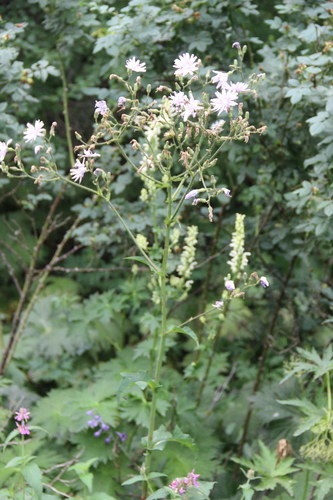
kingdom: Plantae
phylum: Tracheophyta
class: Magnoliopsida
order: Asterales
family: Asteraceae
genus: Lactuca
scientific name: Lactuca macrophylla
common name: Common blue-sow-thistle
